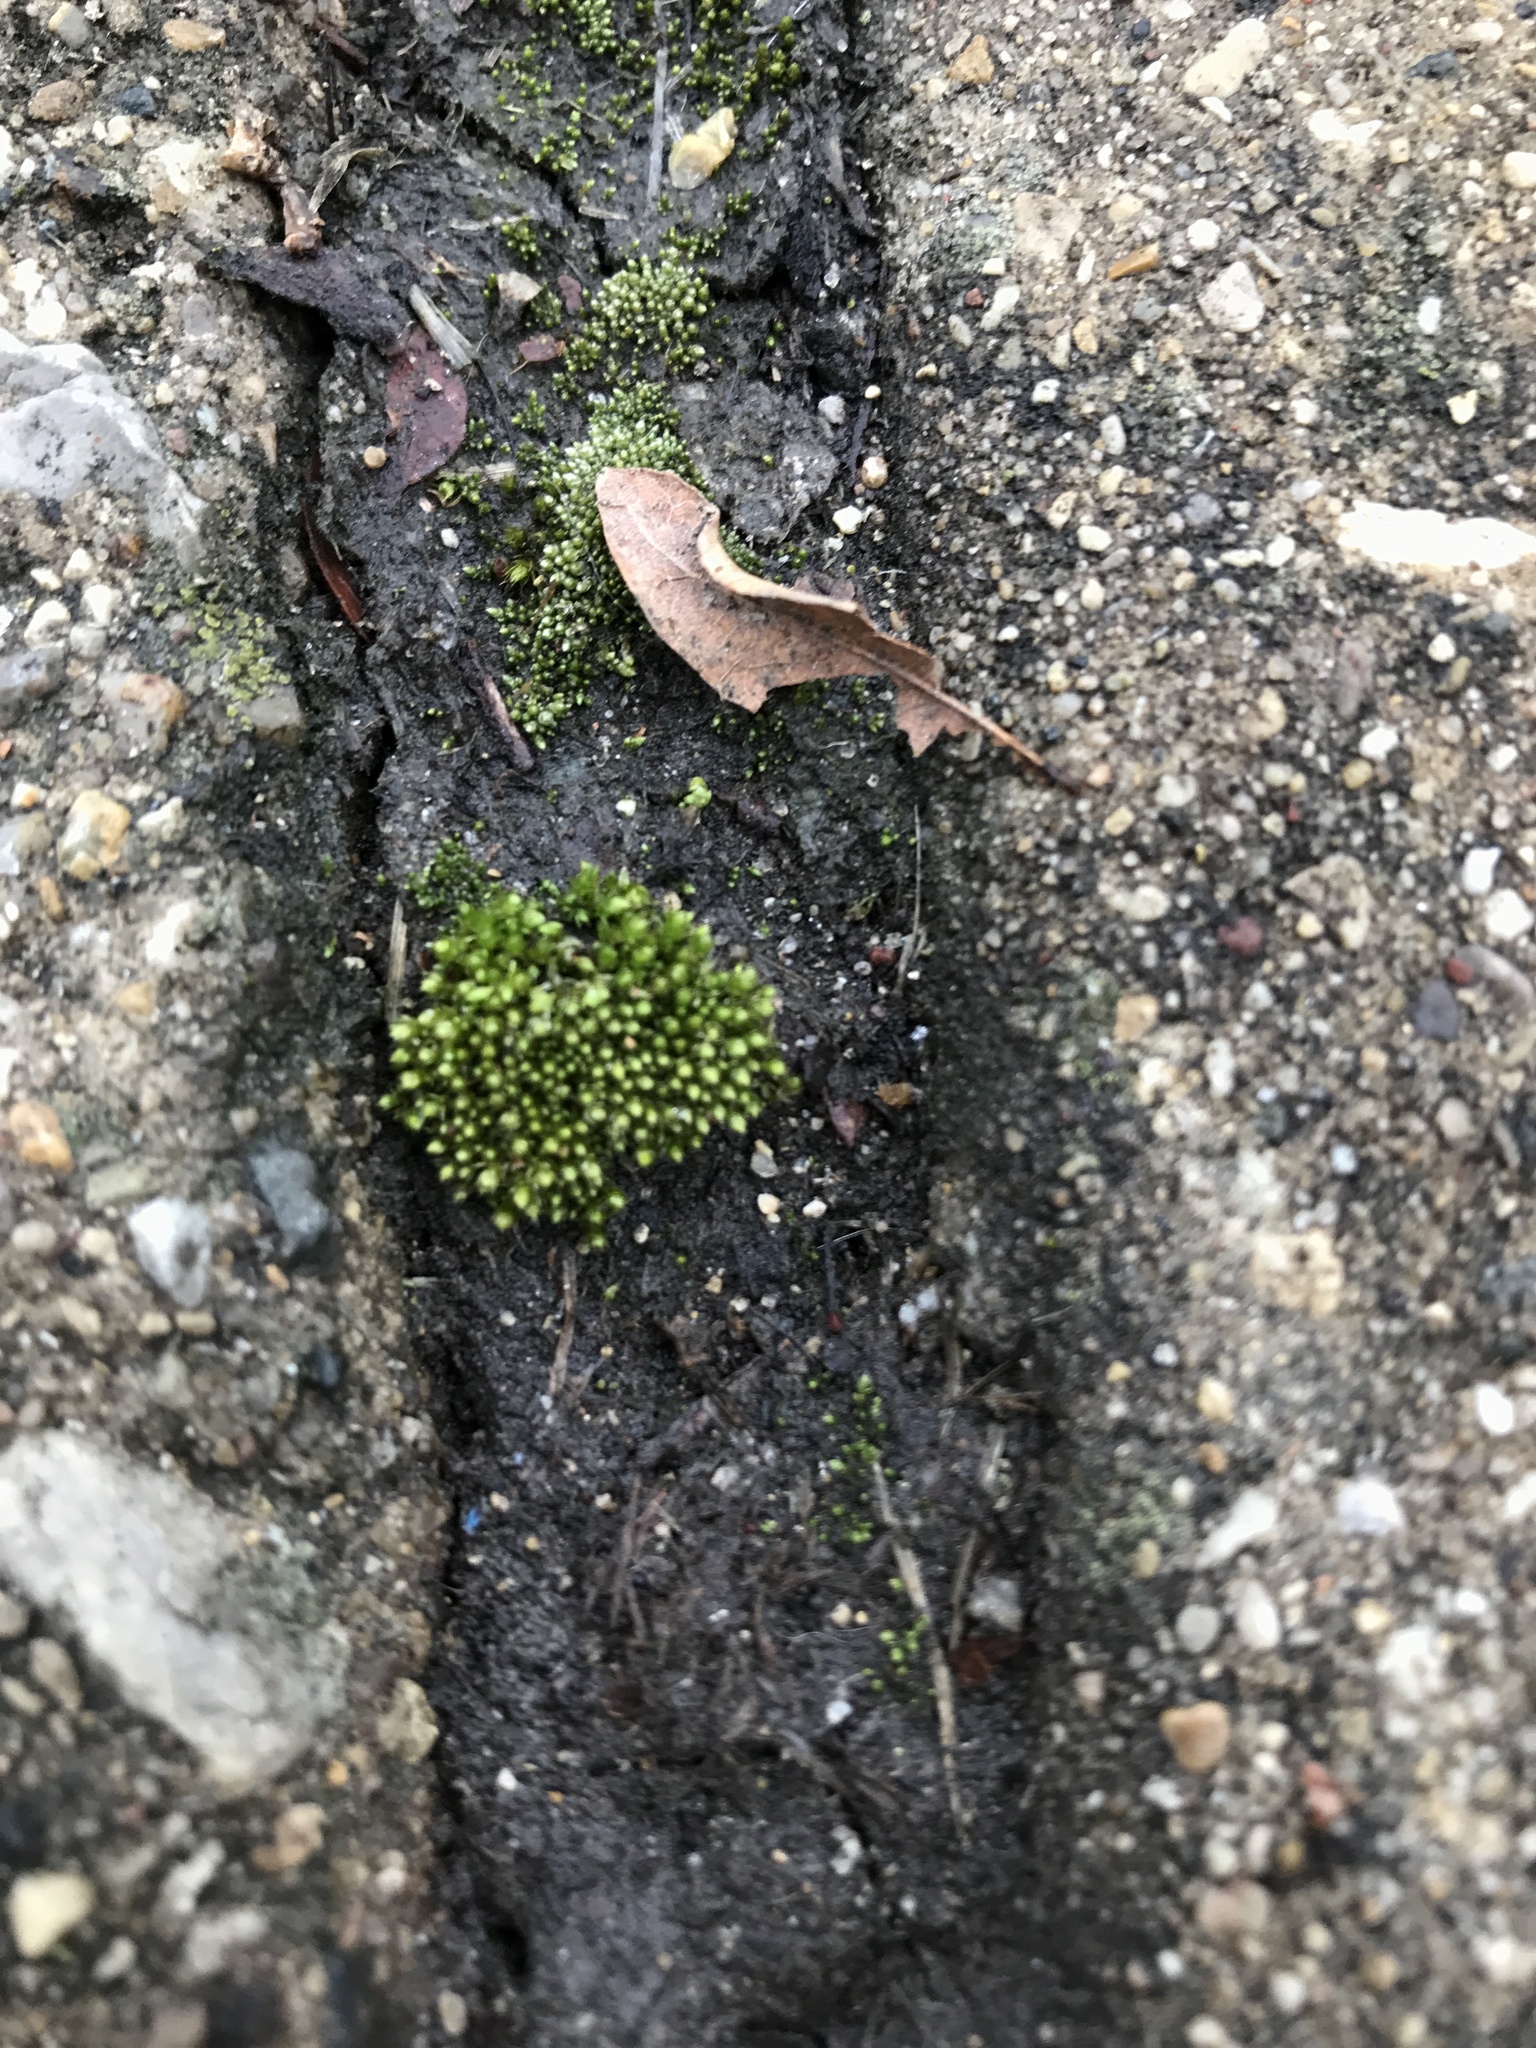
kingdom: Plantae
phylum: Bryophyta
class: Bryopsida
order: Bryales
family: Bryaceae
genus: Bryum
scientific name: Bryum argenteum
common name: Silver-moss
